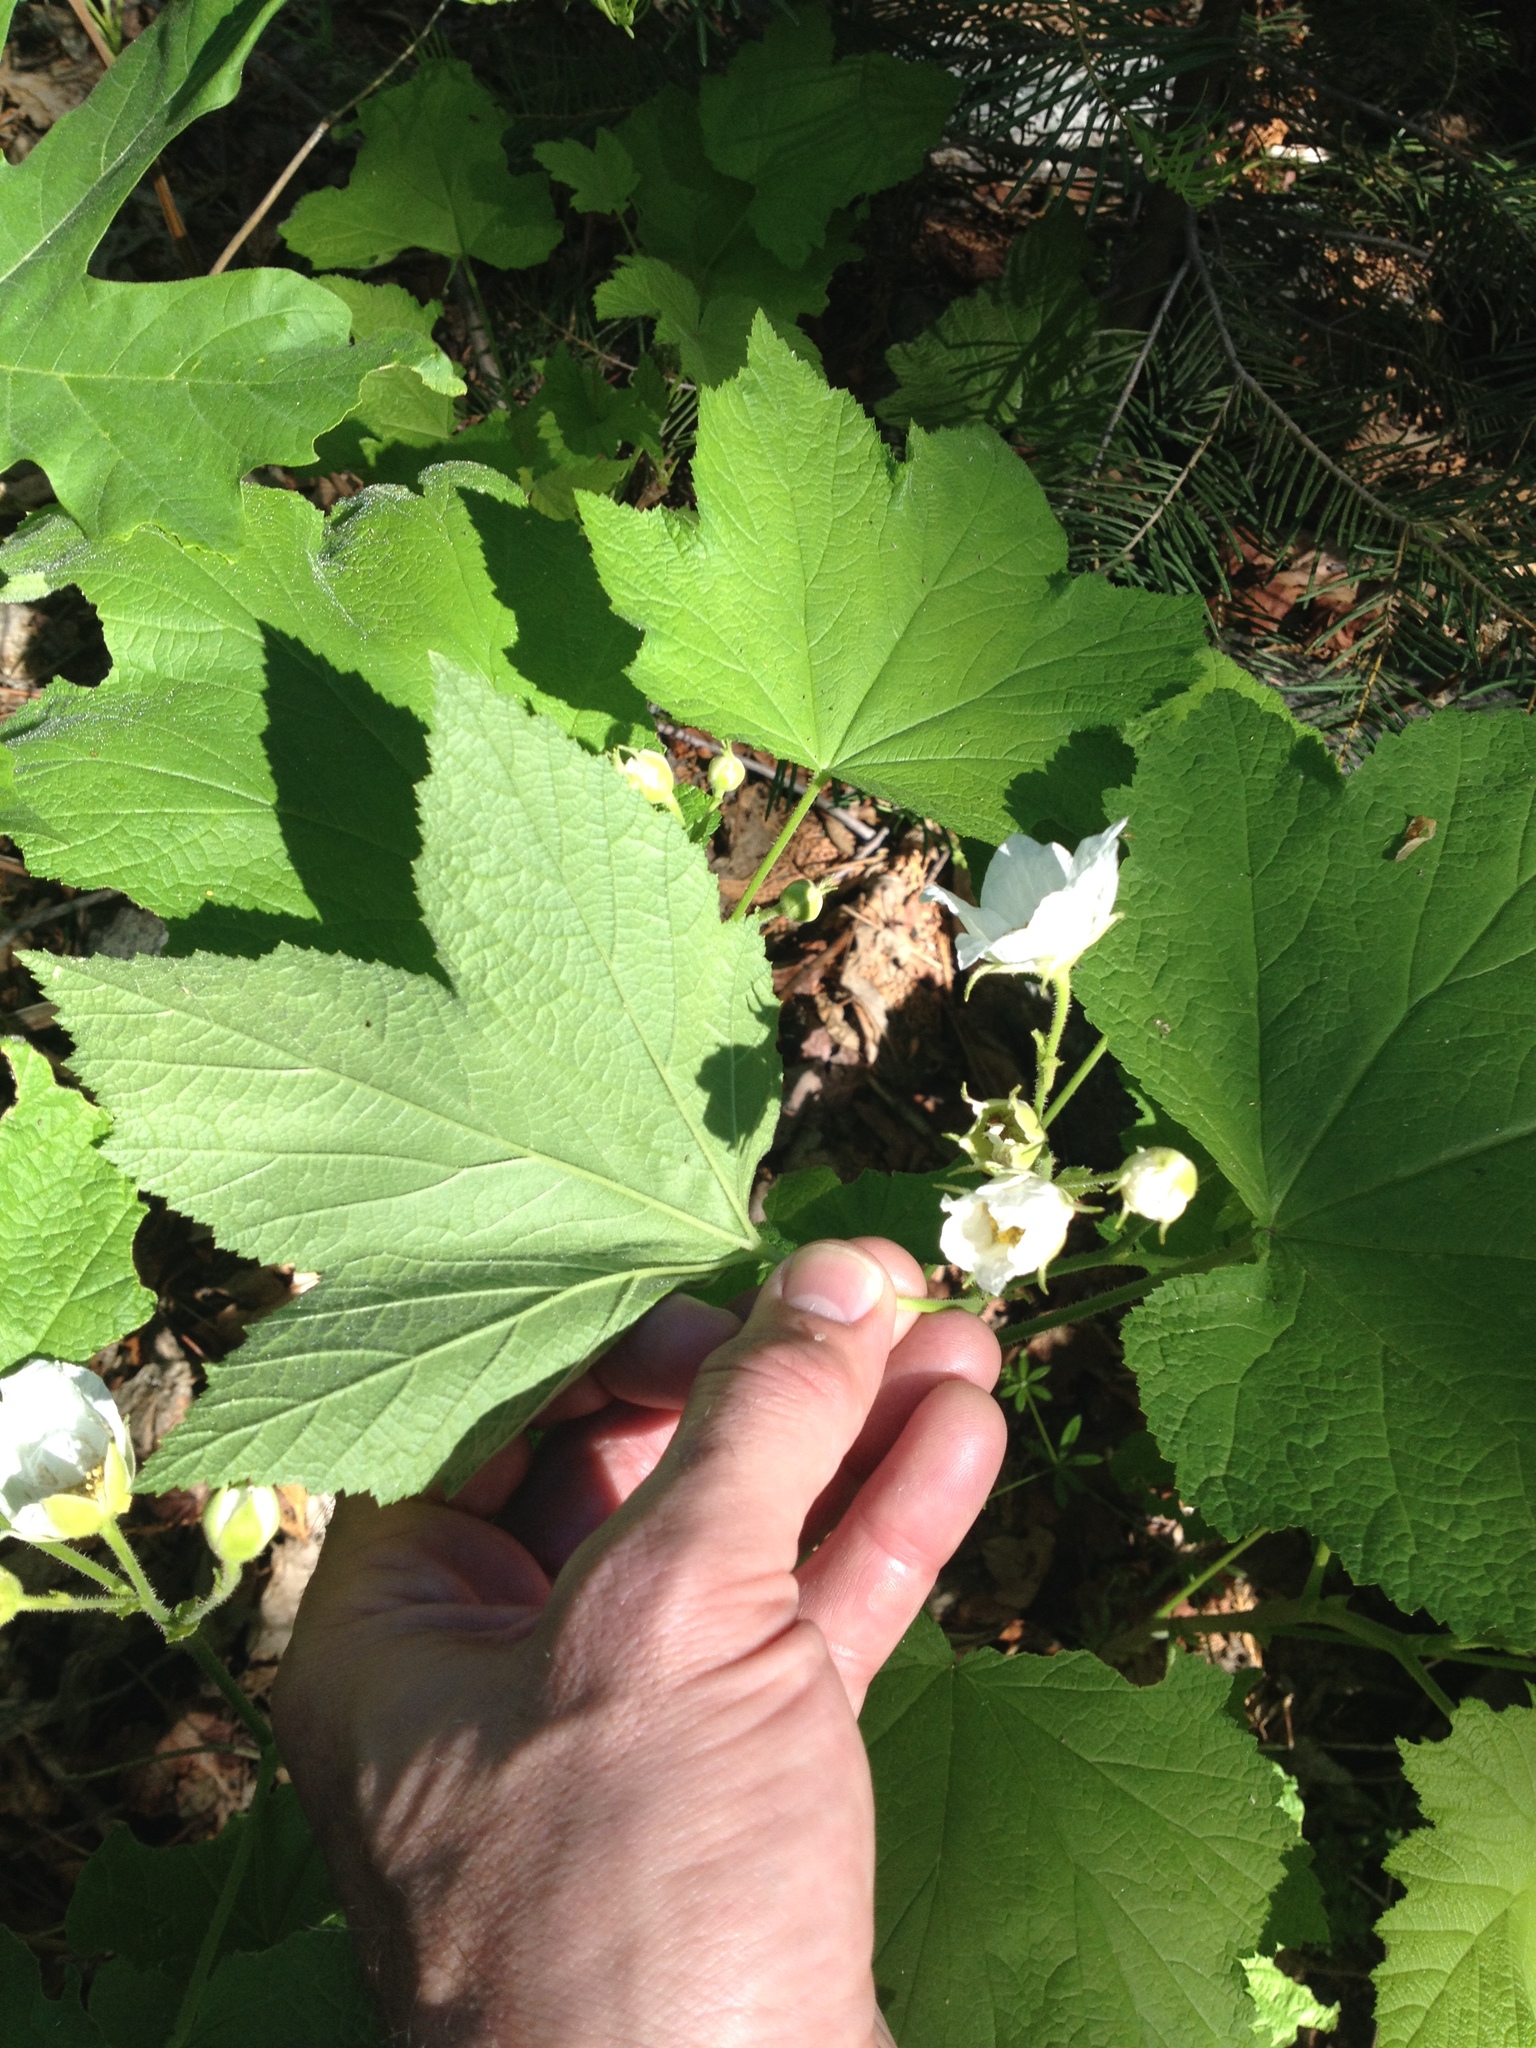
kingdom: Plantae
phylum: Tracheophyta
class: Magnoliopsida
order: Rosales
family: Rosaceae
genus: Rubus
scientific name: Rubus parviflorus
